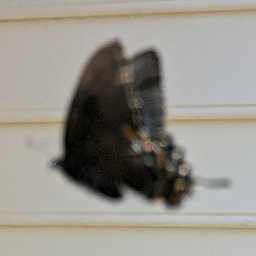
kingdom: Animalia
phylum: Arthropoda
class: Insecta
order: Lepidoptera
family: Papilionidae
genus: Papilio
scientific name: Papilio glaucus
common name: Tiger swallowtail
